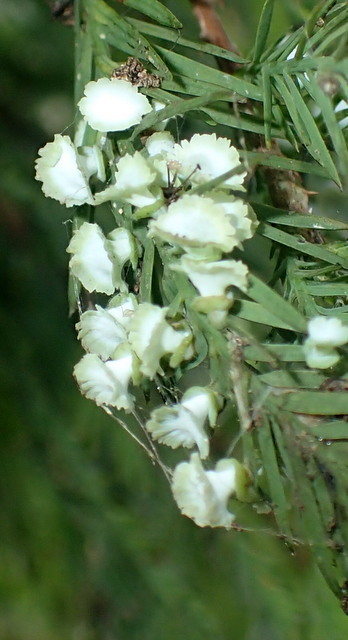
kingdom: Animalia
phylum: Arthropoda
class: Insecta
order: Diptera
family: Cecidomyiidae
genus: Taxodiomyia
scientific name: Taxodiomyia cupressi
